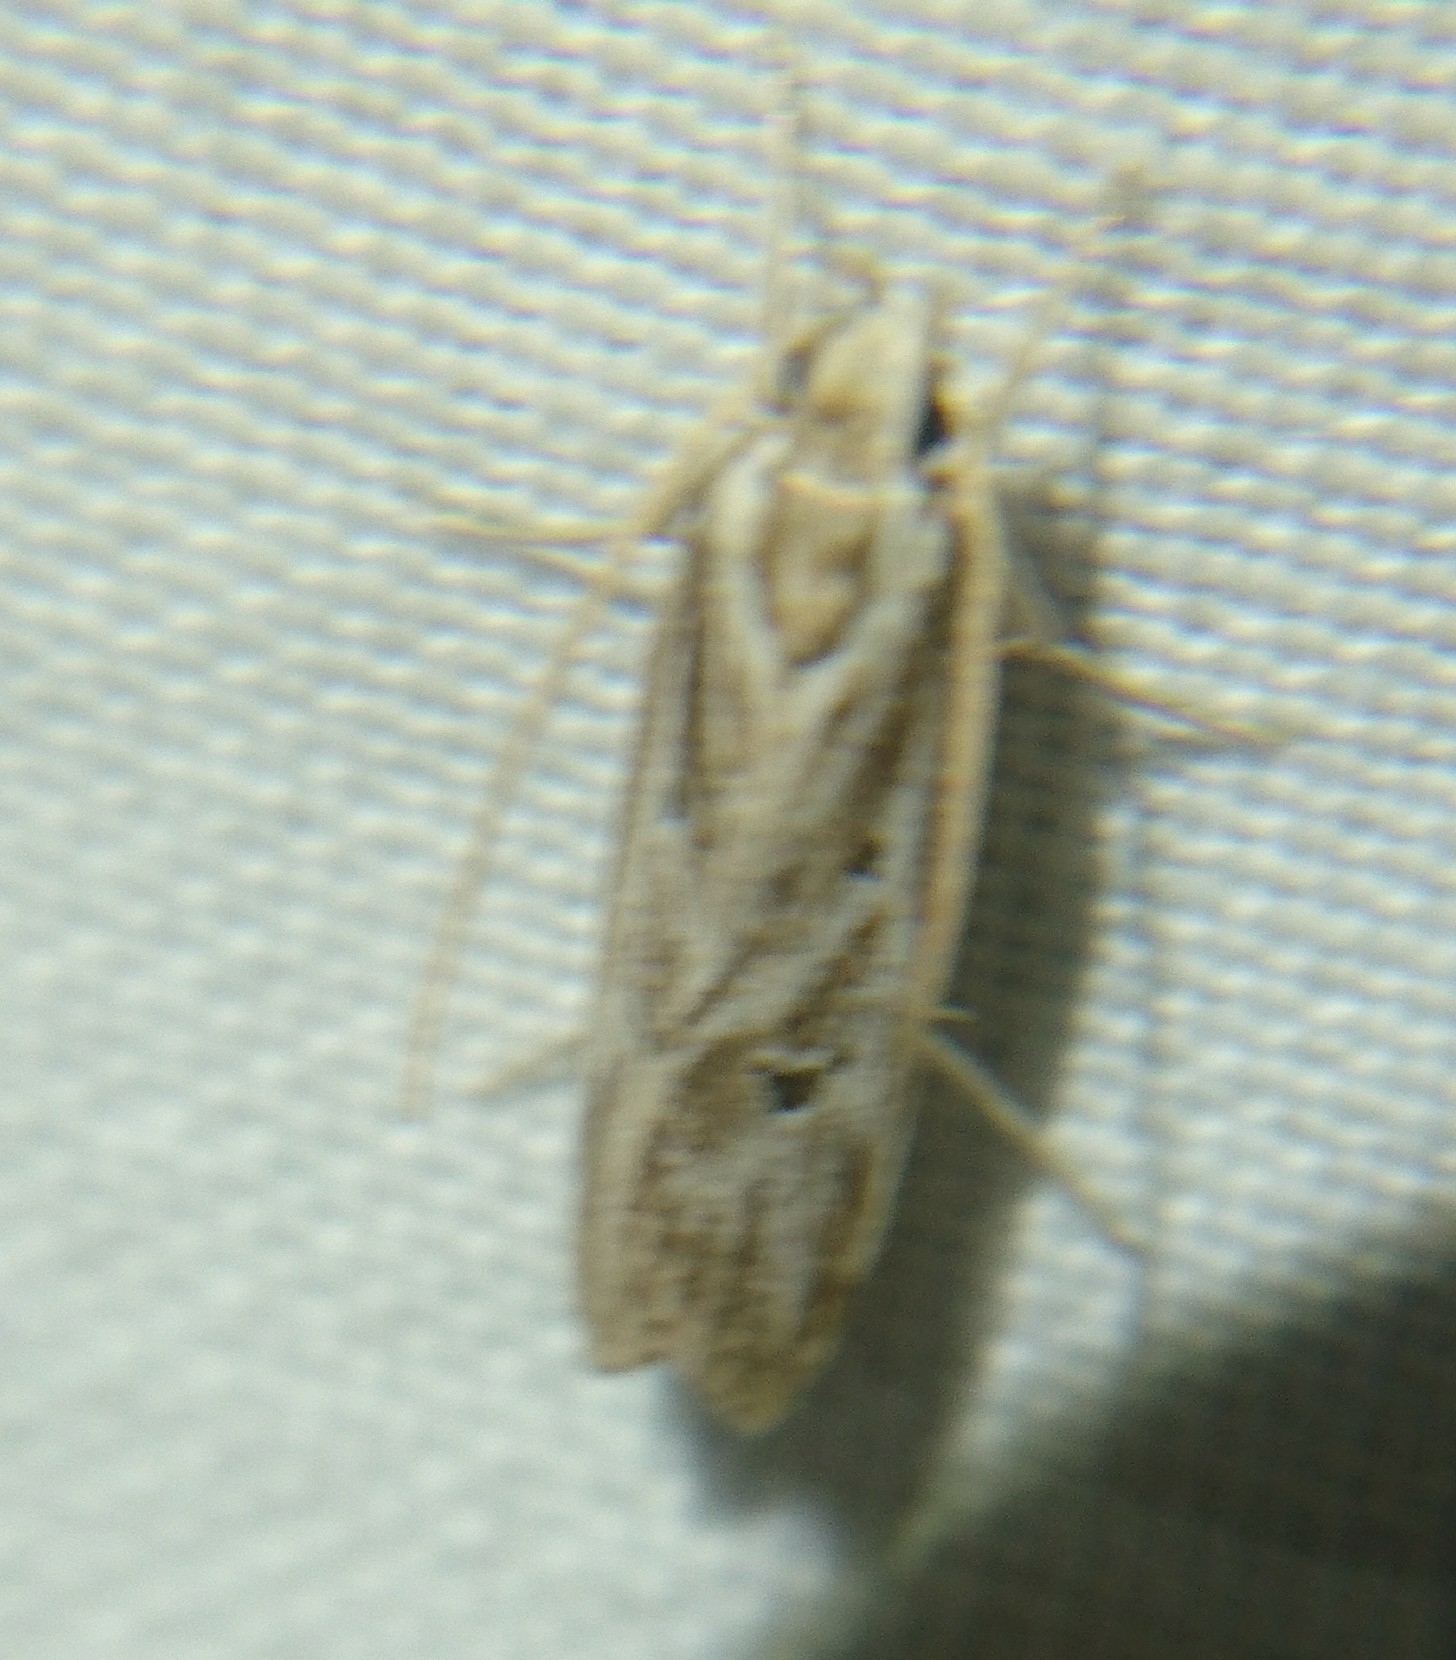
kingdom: Animalia
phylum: Arthropoda
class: Insecta
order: Lepidoptera
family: Depressariidae
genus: Eupragia
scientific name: Eupragia hospita
